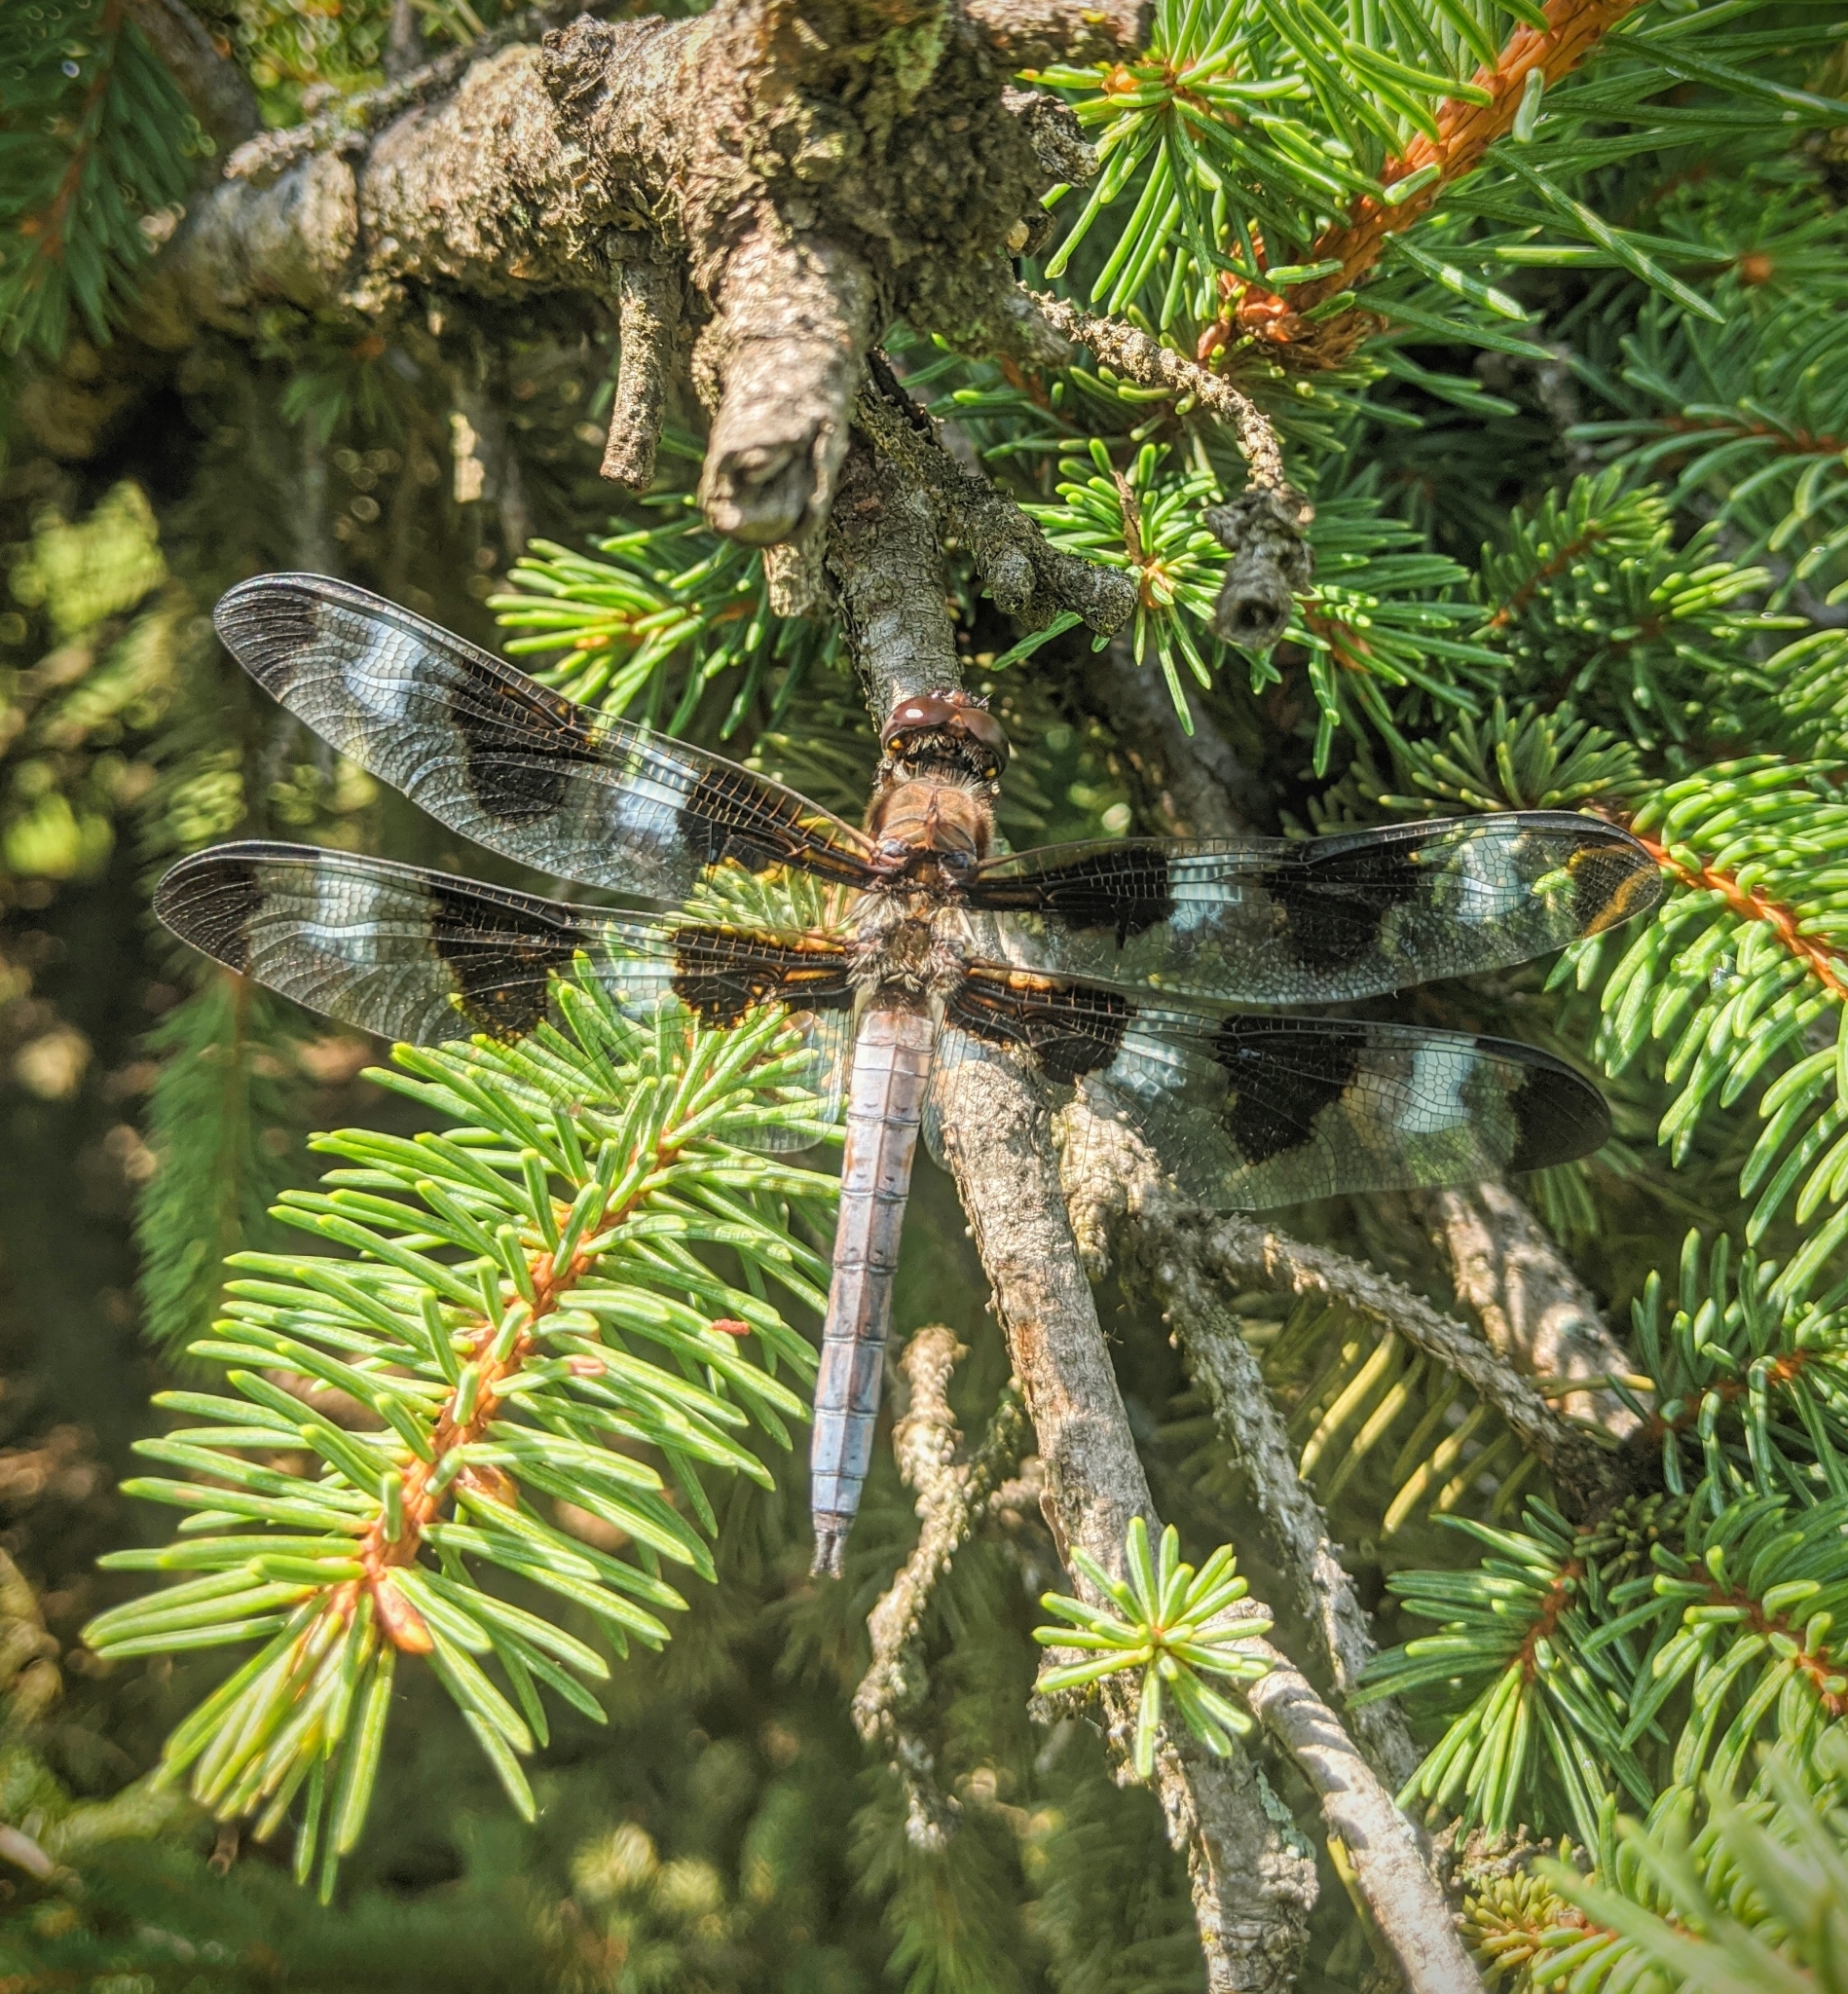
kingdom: Animalia
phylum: Arthropoda
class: Insecta
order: Odonata
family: Libellulidae
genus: Libellula
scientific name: Libellula pulchella
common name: Twelve-spotted skimmer
